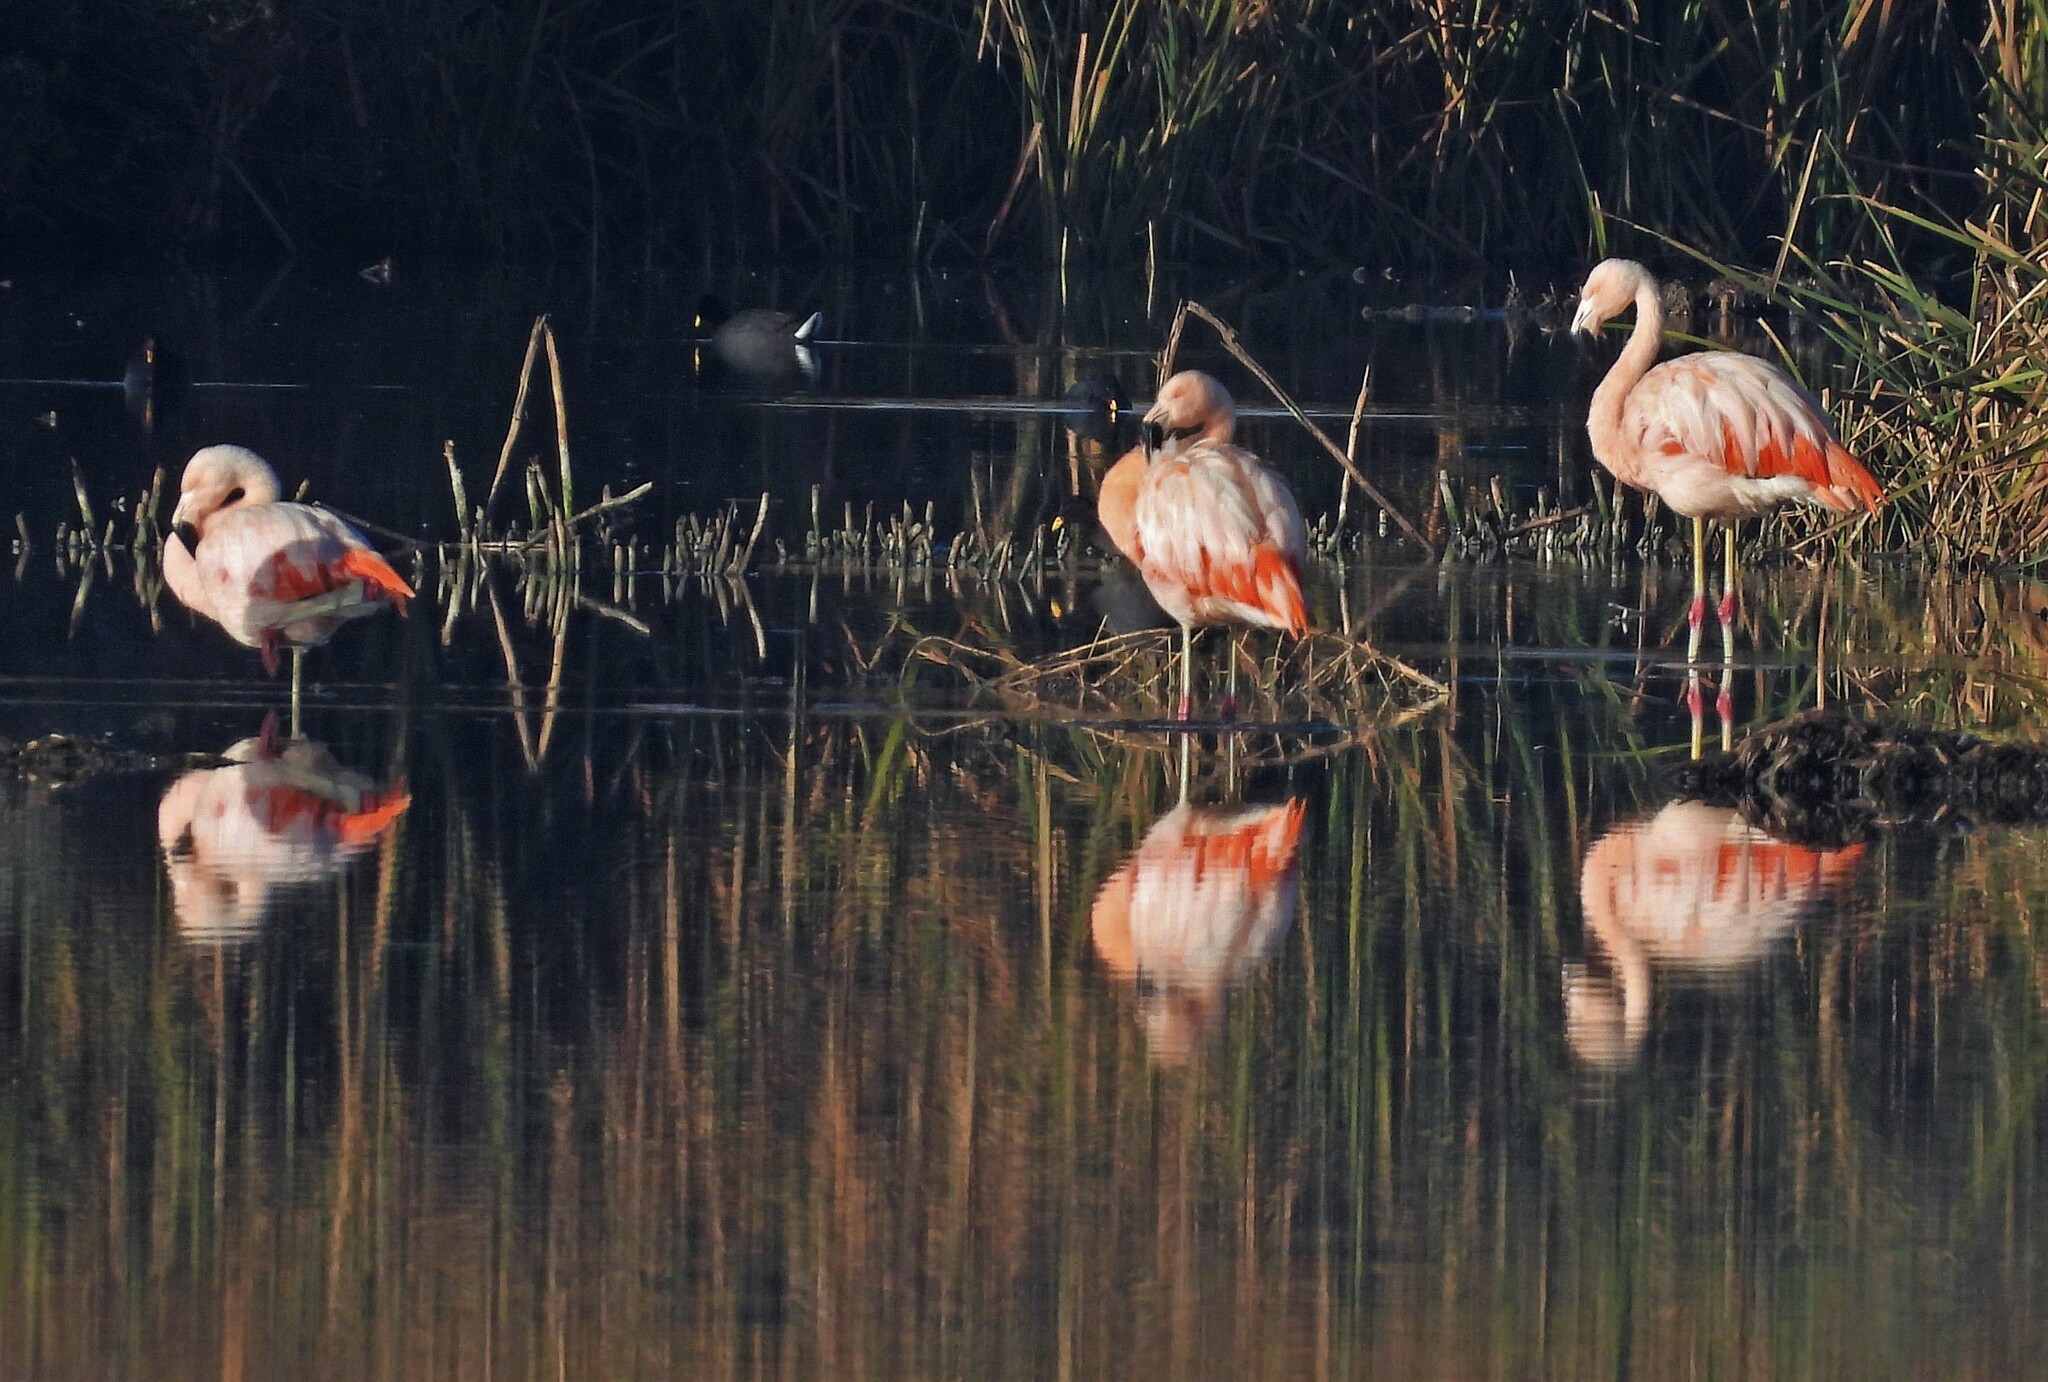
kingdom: Animalia
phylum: Chordata
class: Aves
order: Phoenicopteriformes
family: Phoenicopteridae
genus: Phoenicopterus
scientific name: Phoenicopterus chilensis
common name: Chilean flamingo
